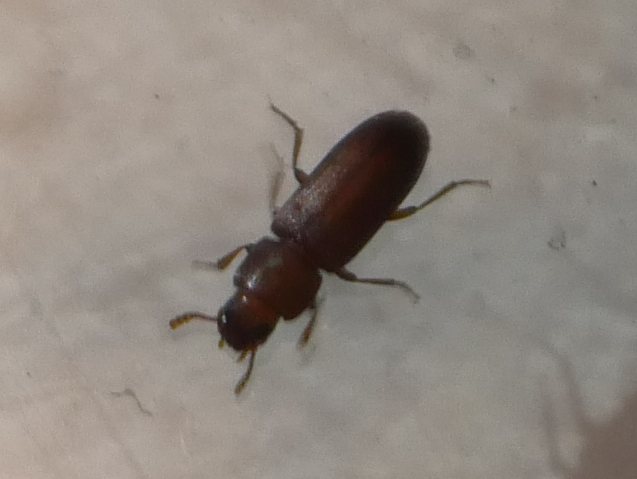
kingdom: Animalia
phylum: Arthropoda
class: Insecta
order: Coleoptera
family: Tenebrionidae
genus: Tribolium
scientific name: Tribolium castaneum
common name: Rust-red flour beetle
